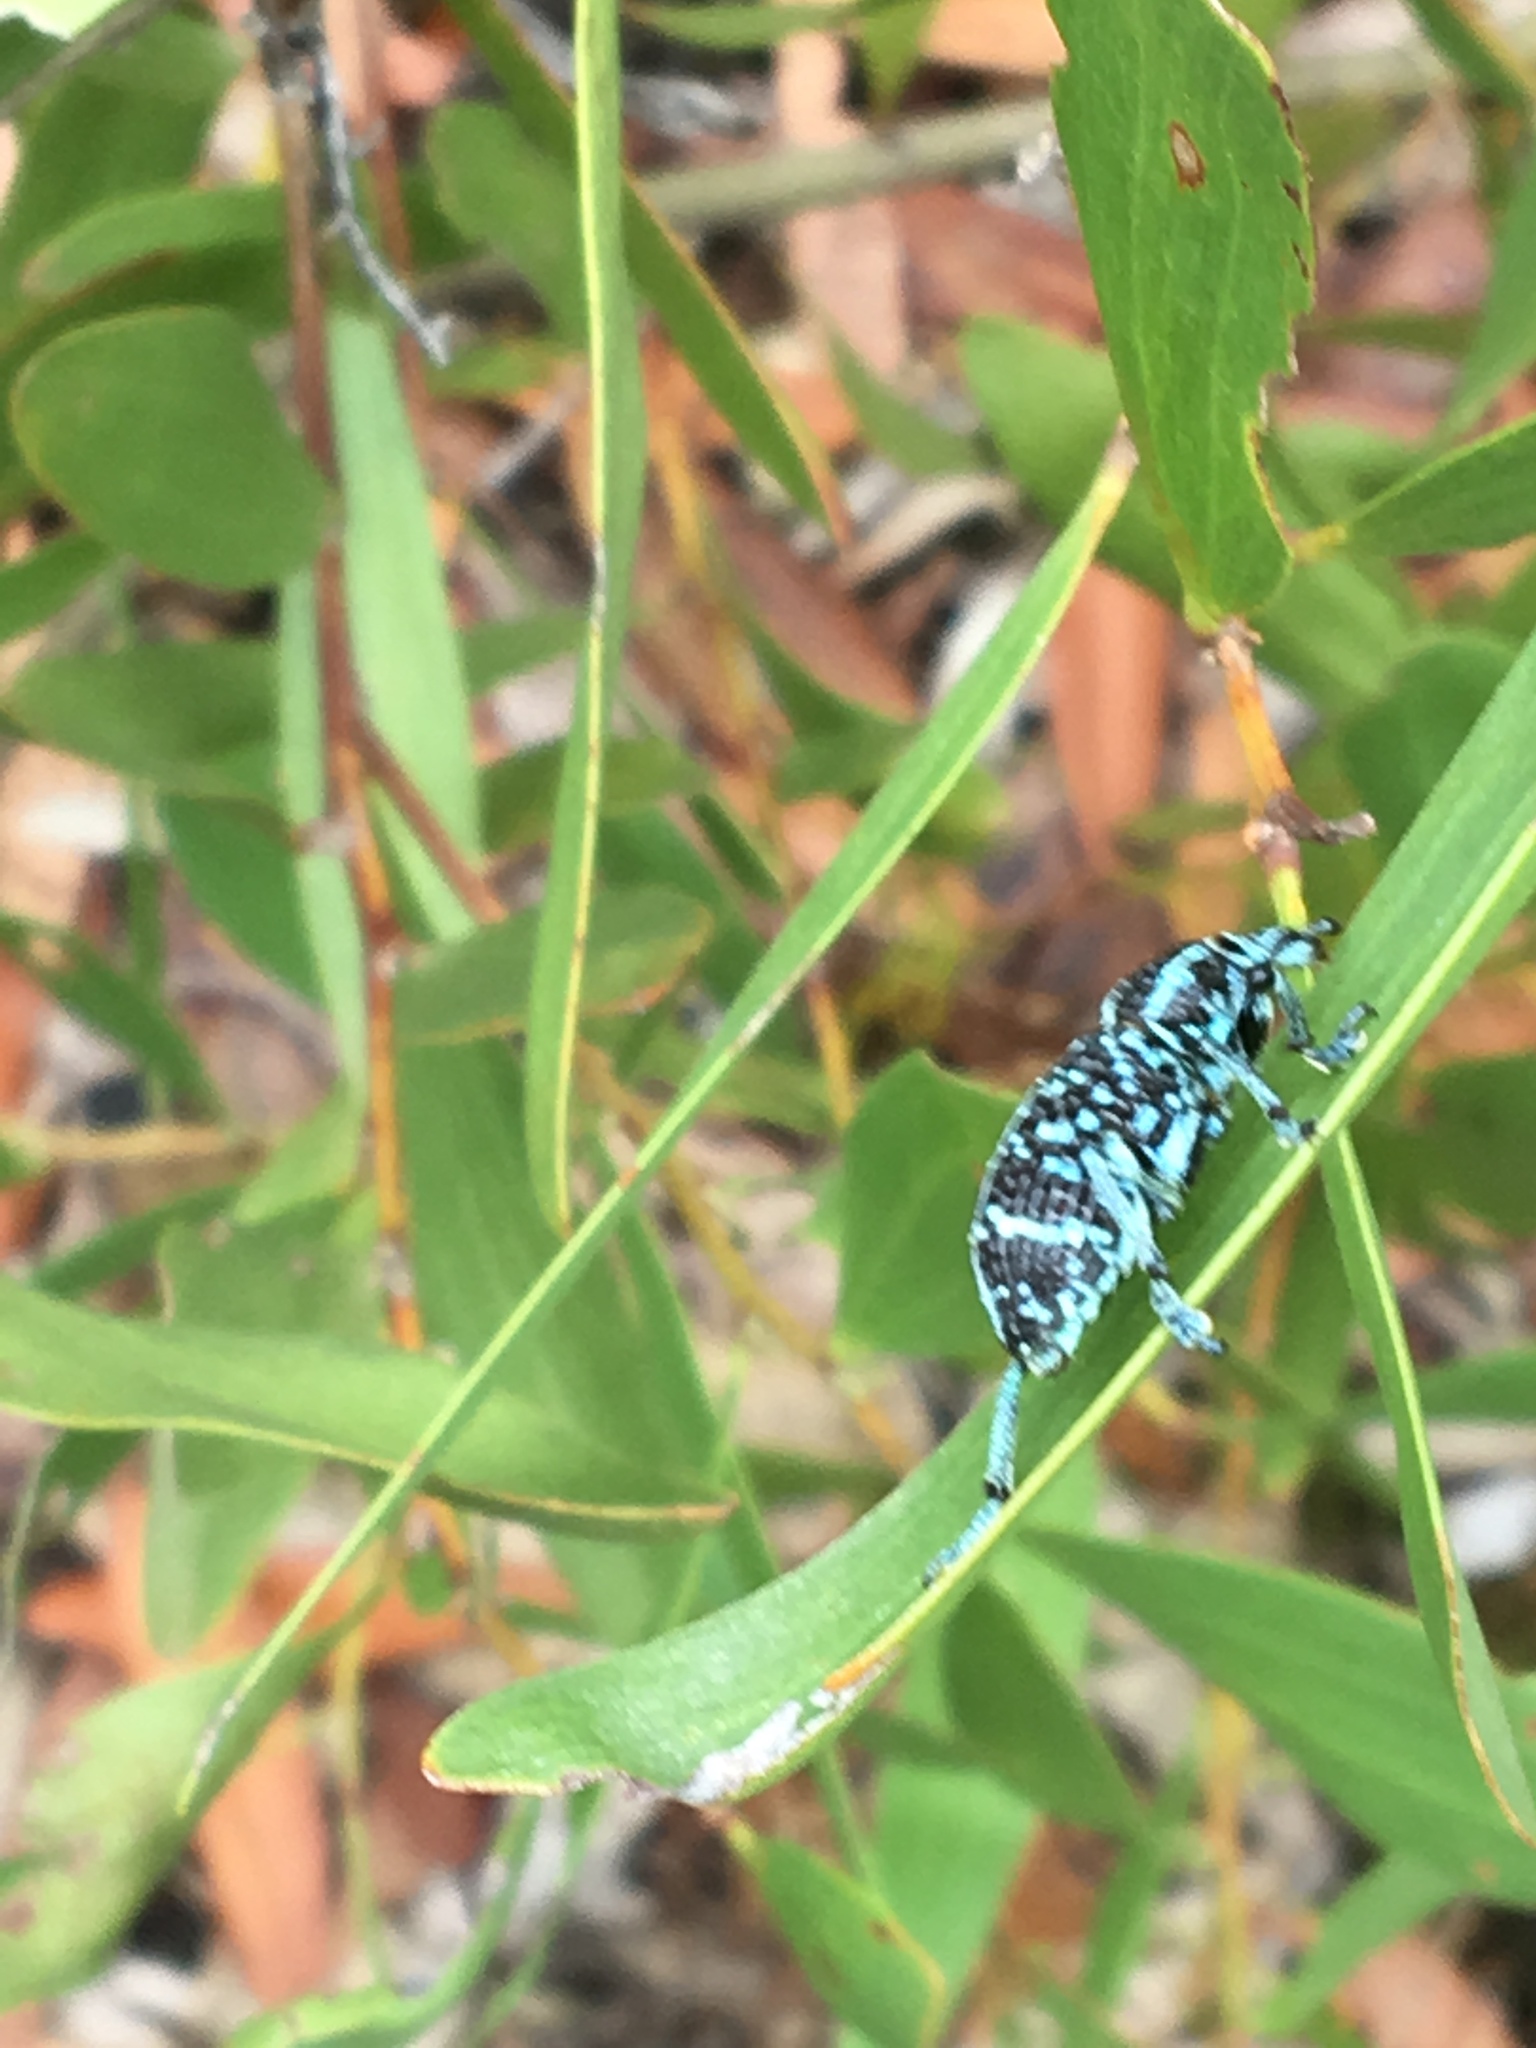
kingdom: Animalia
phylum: Arthropoda
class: Insecta
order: Coleoptera
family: Curculionidae
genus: Chrysolopus
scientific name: Chrysolopus spectabilis
